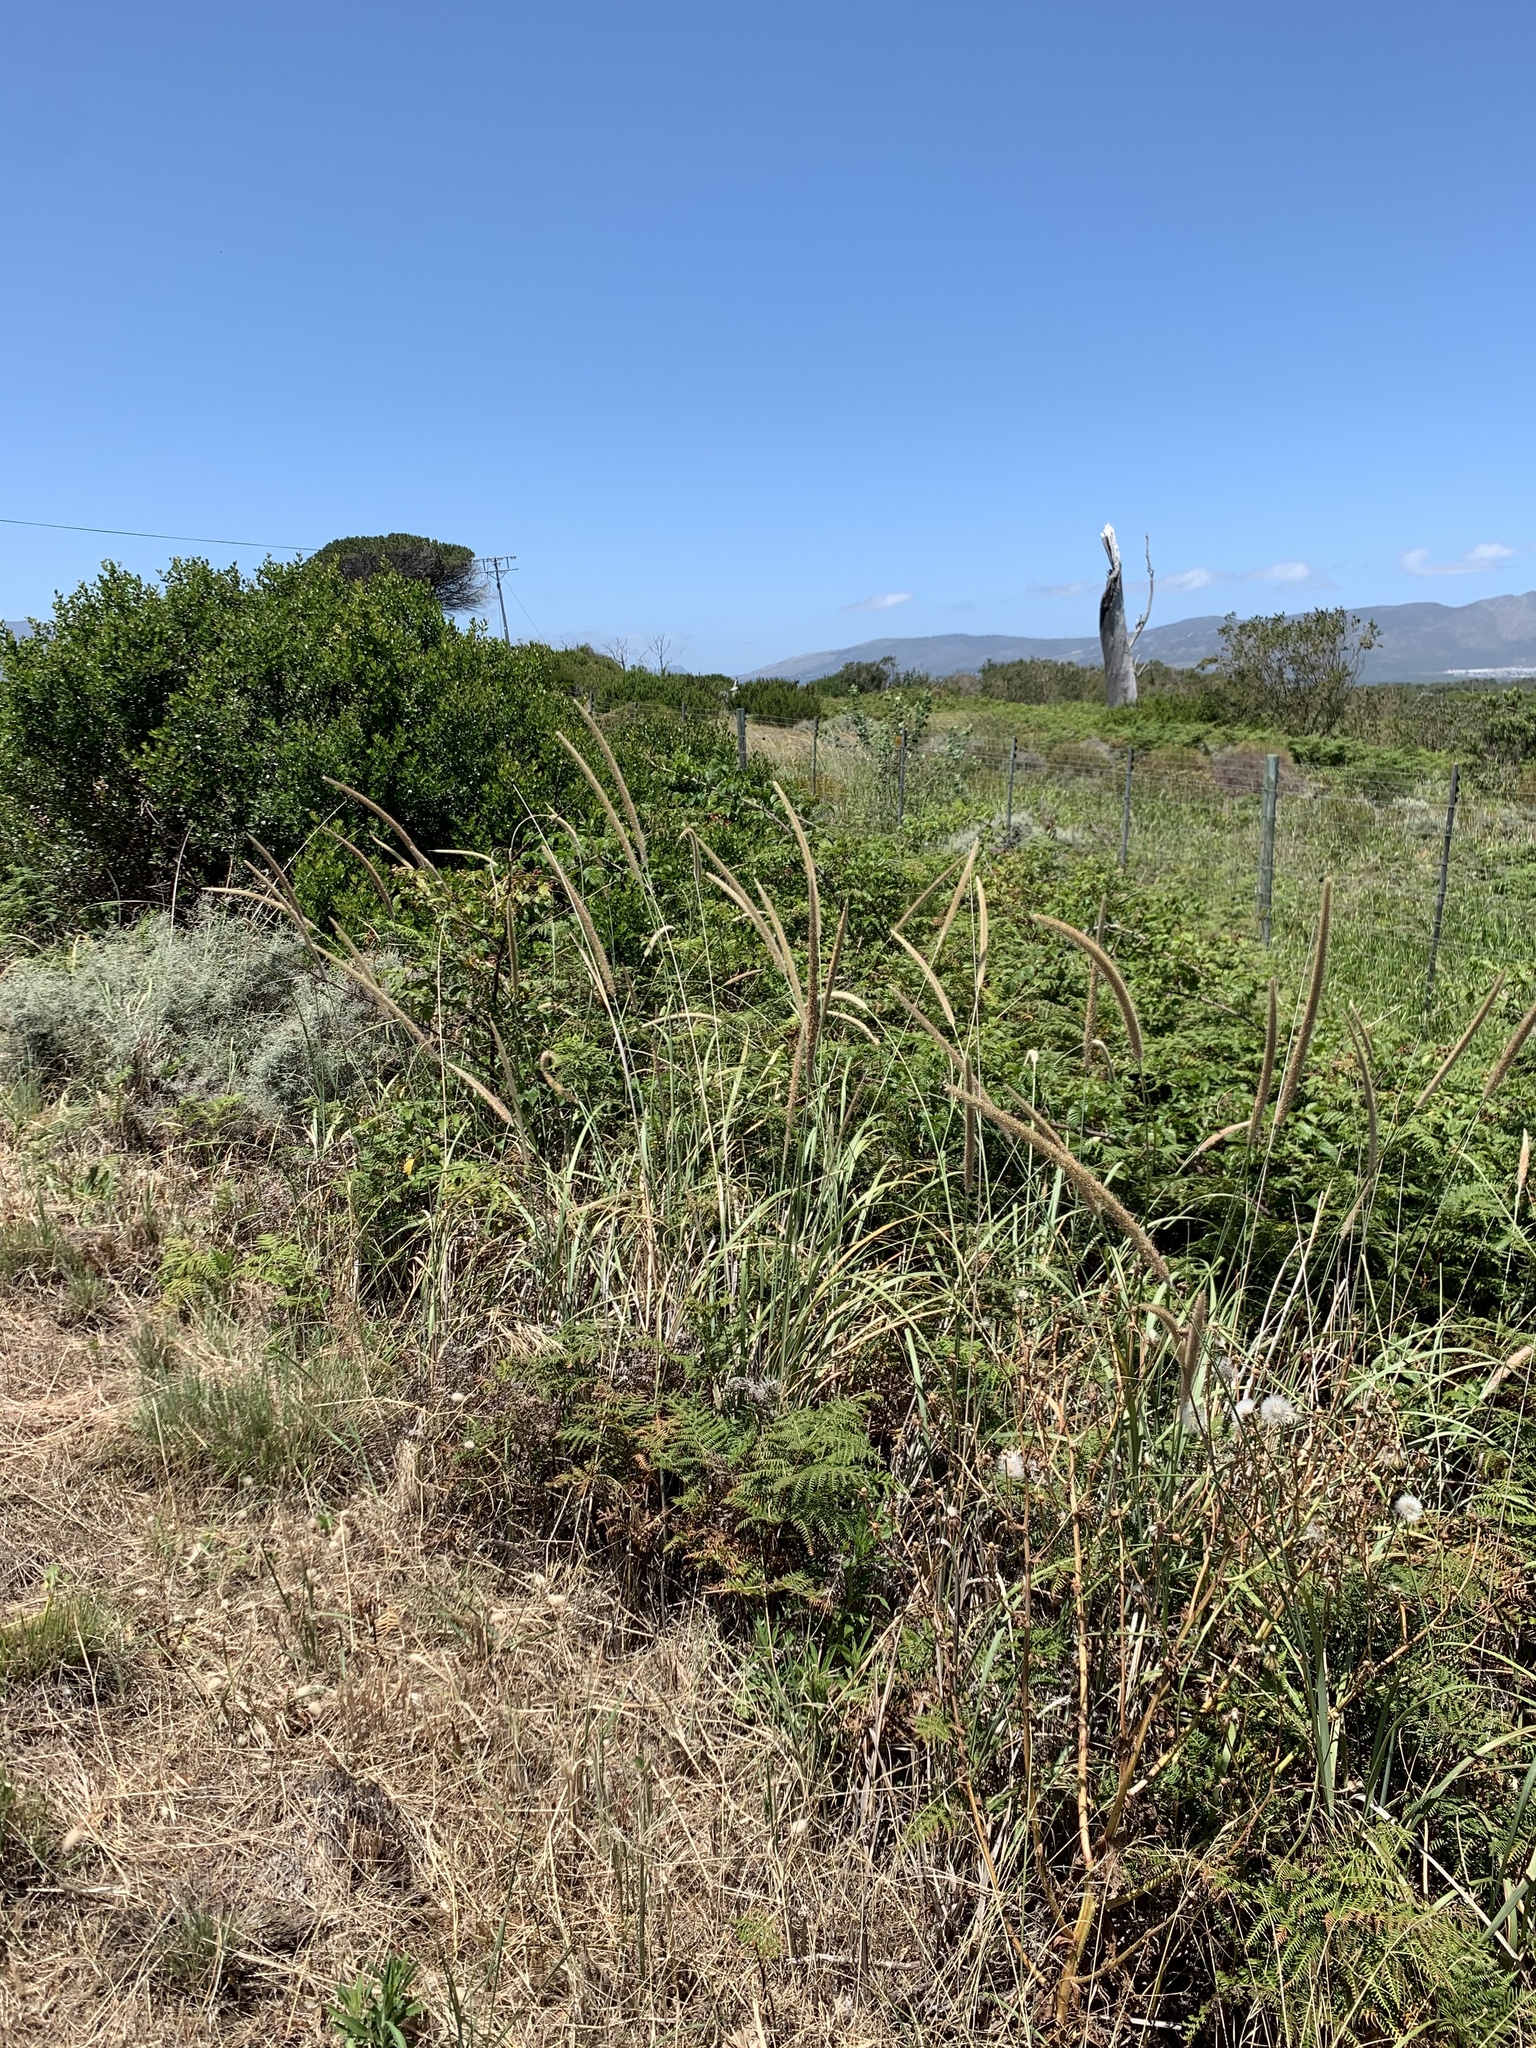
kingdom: Plantae
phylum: Tracheophyta
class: Liliopsida
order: Poales
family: Poaceae
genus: Cenchrus
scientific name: Cenchrus caudatus
